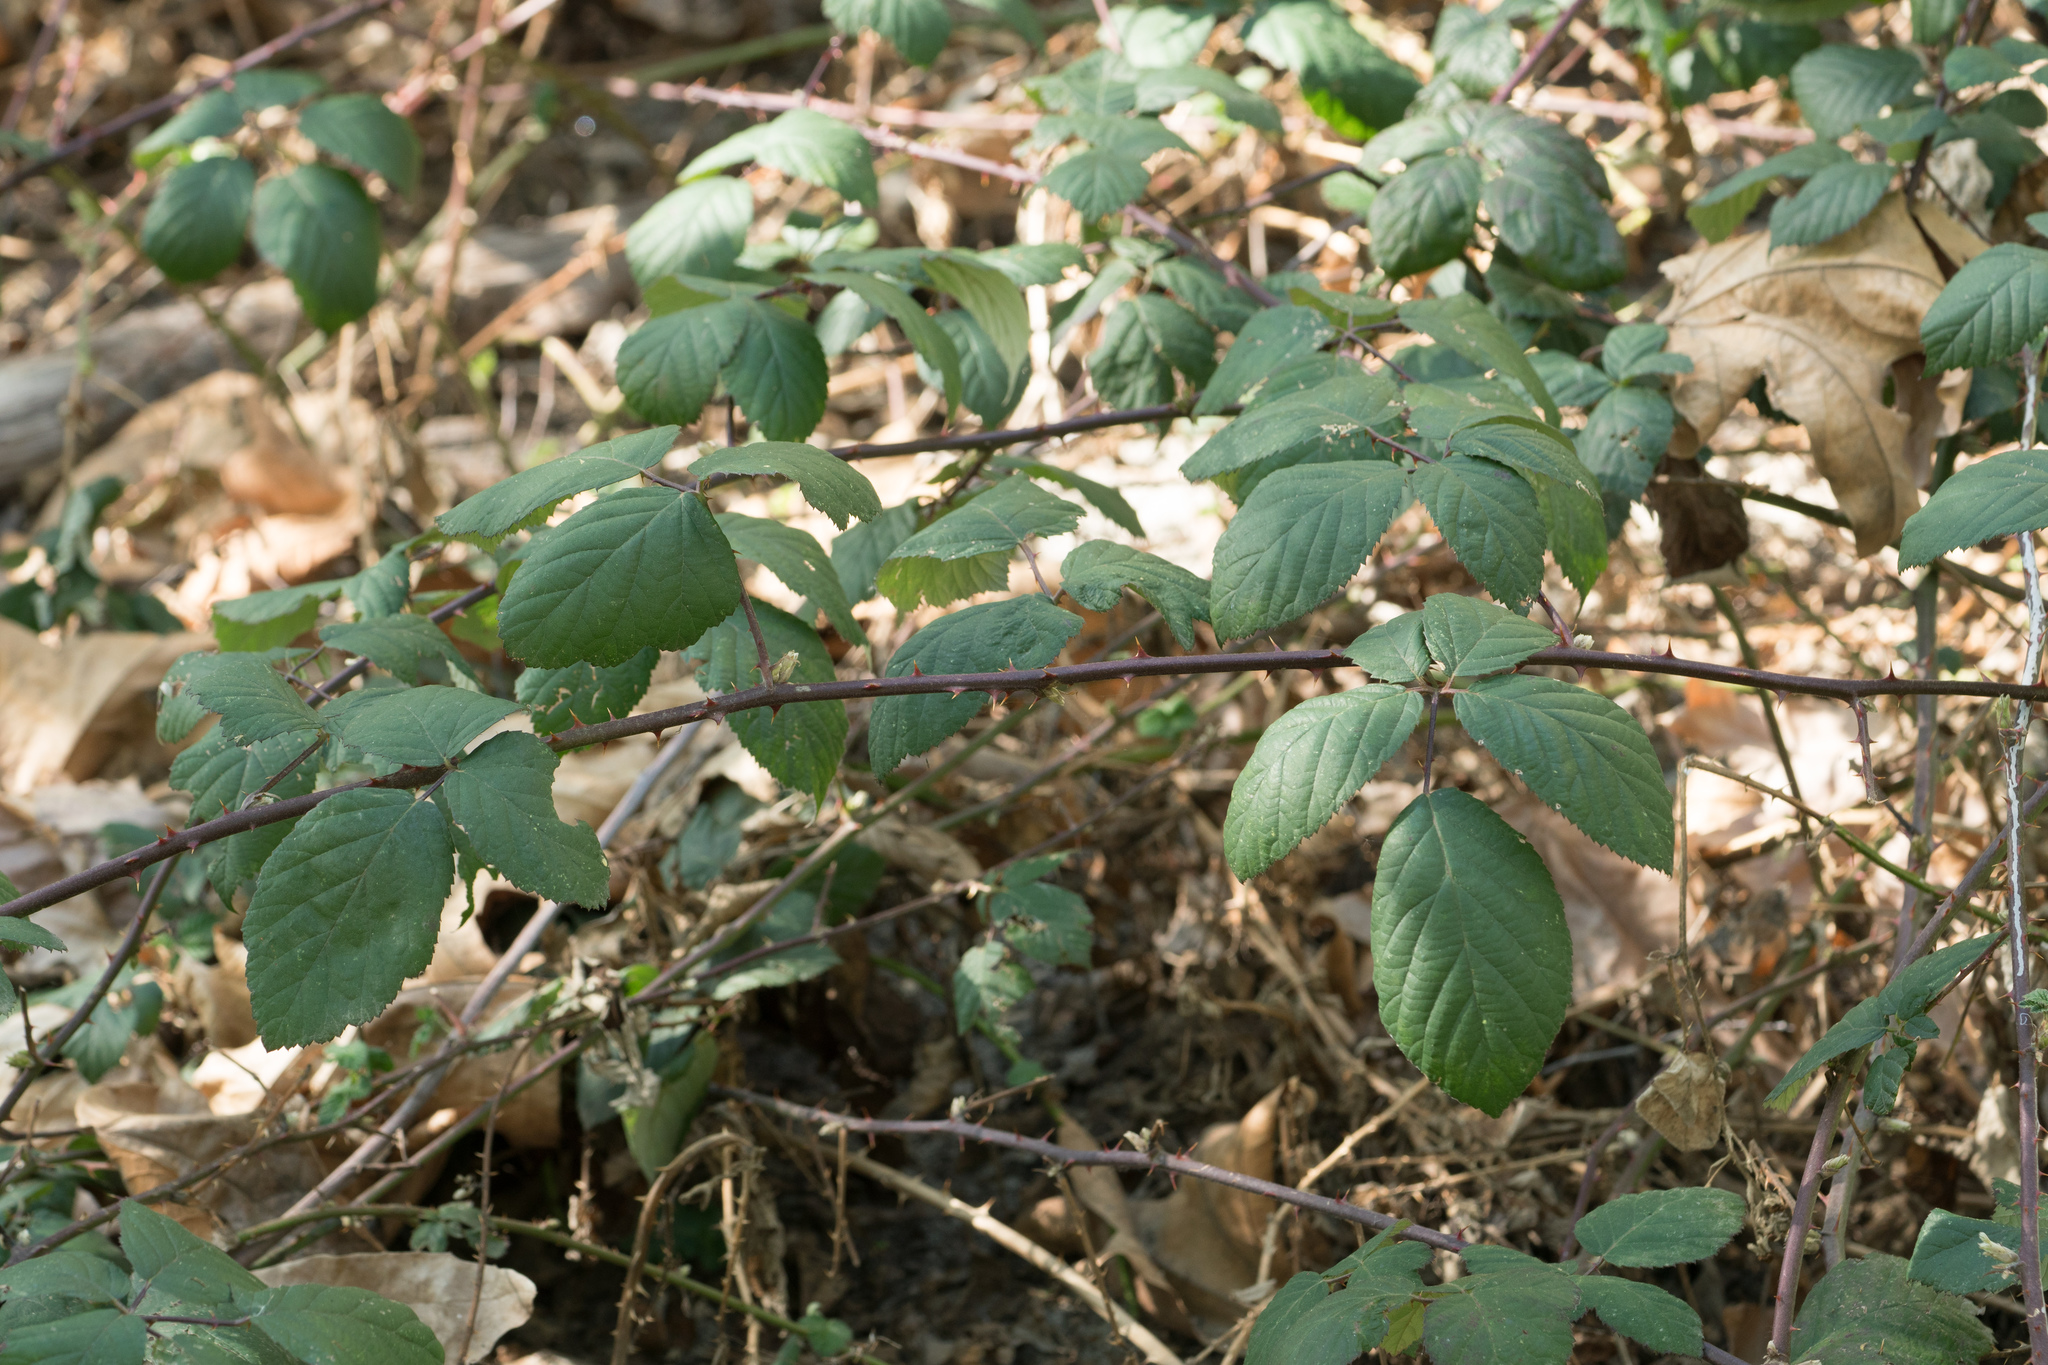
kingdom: Plantae
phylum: Tracheophyta
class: Magnoliopsida
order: Rosales
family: Rosaceae
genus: Rubus
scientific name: Rubus armeniacus
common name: Himalayan blackberry
